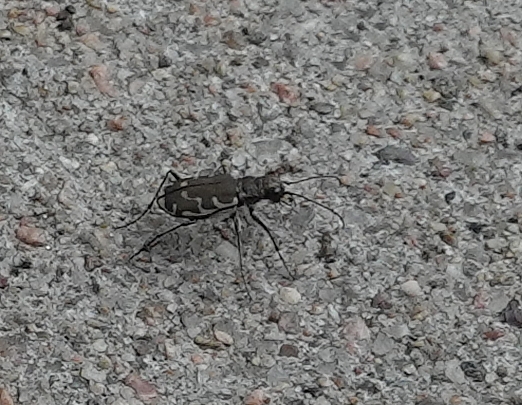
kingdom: Animalia
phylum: Arthropoda
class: Insecta
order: Coleoptera
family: Carabidae
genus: Cicindela
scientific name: Cicindela repanda
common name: Bronzed tiger beetle
